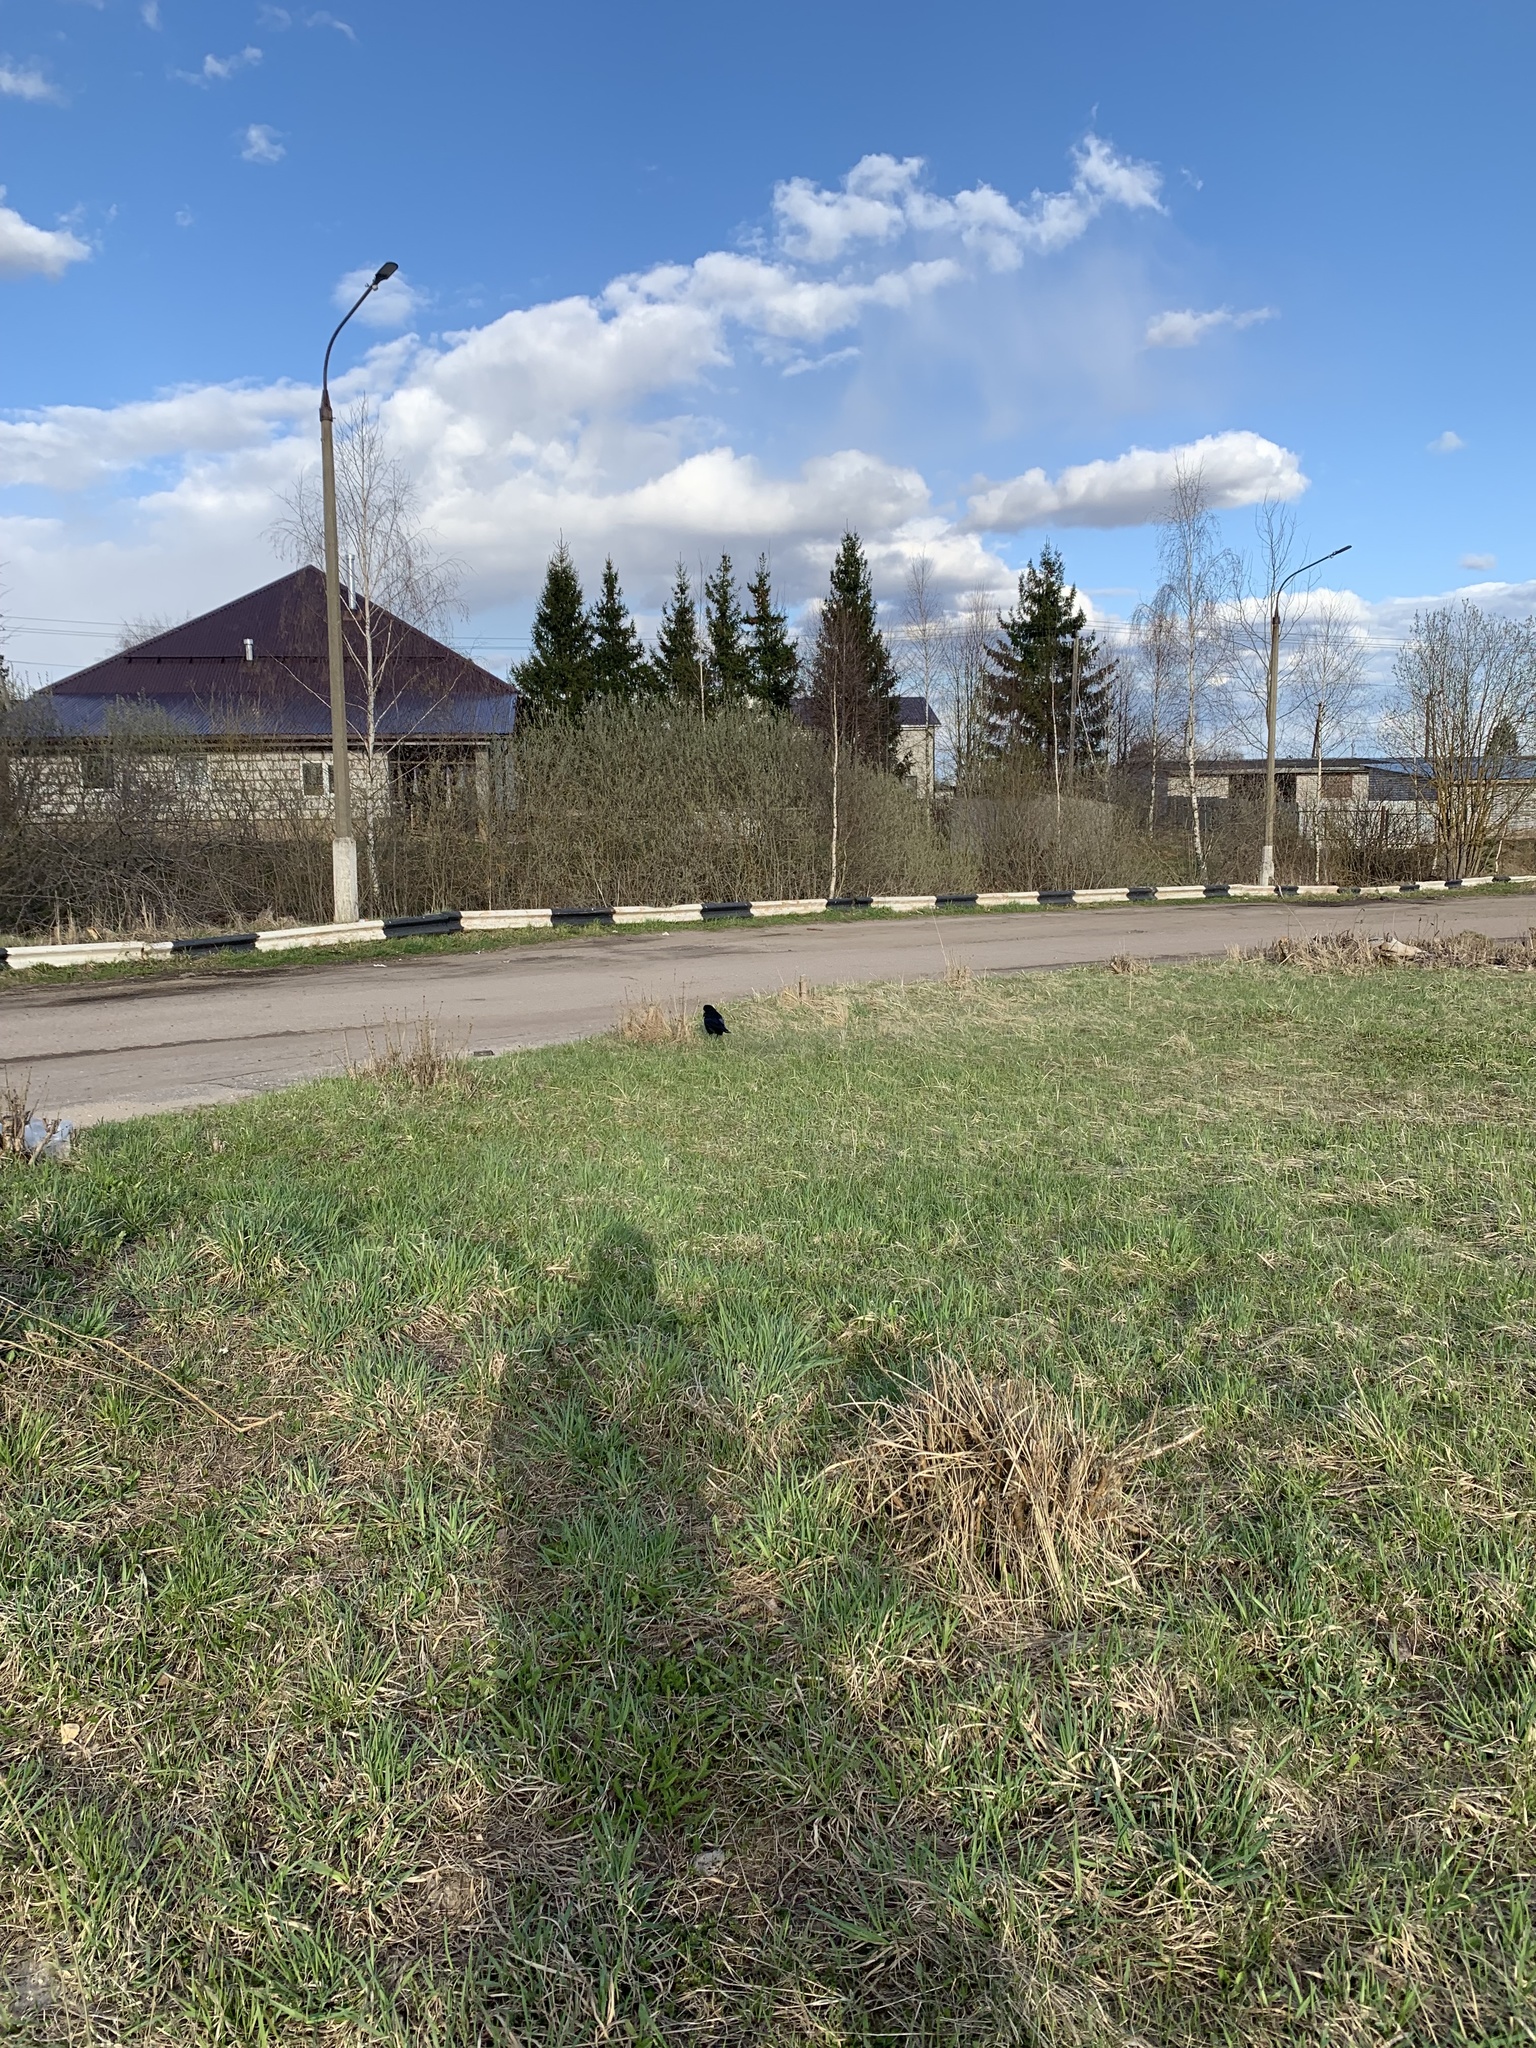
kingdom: Animalia
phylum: Chordata
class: Aves
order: Passeriformes
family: Corvidae
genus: Corvus
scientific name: Corvus frugilegus
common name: Rook
